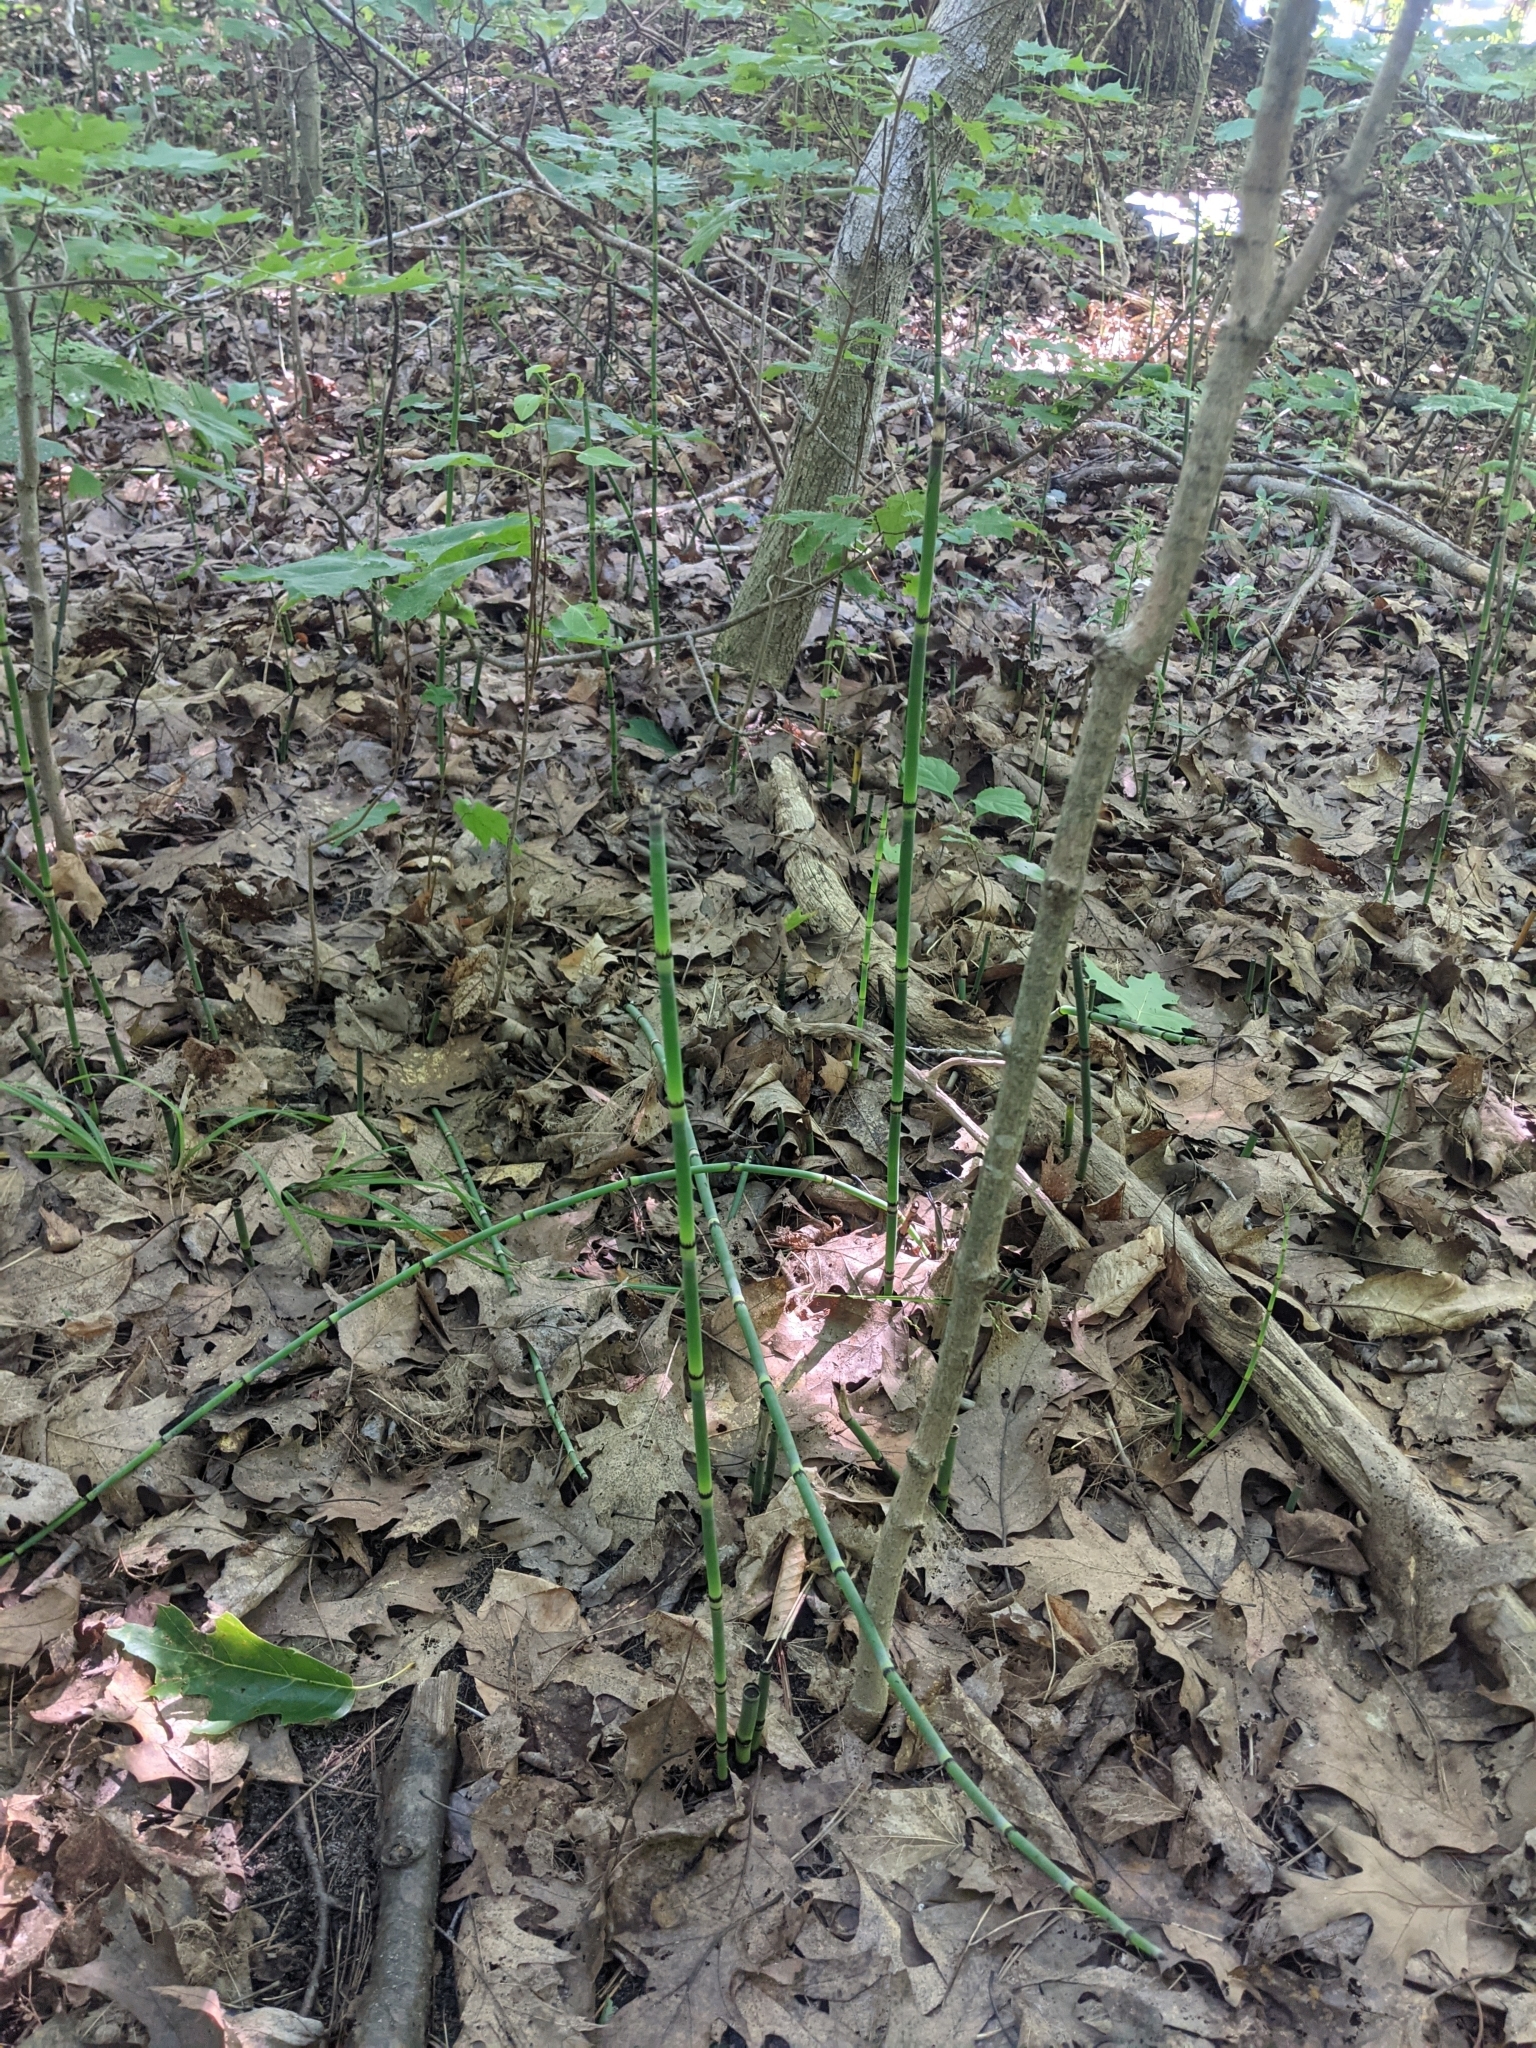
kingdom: Plantae
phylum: Tracheophyta
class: Polypodiopsida
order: Equisetales
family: Equisetaceae
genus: Equisetum
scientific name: Equisetum praealtum
